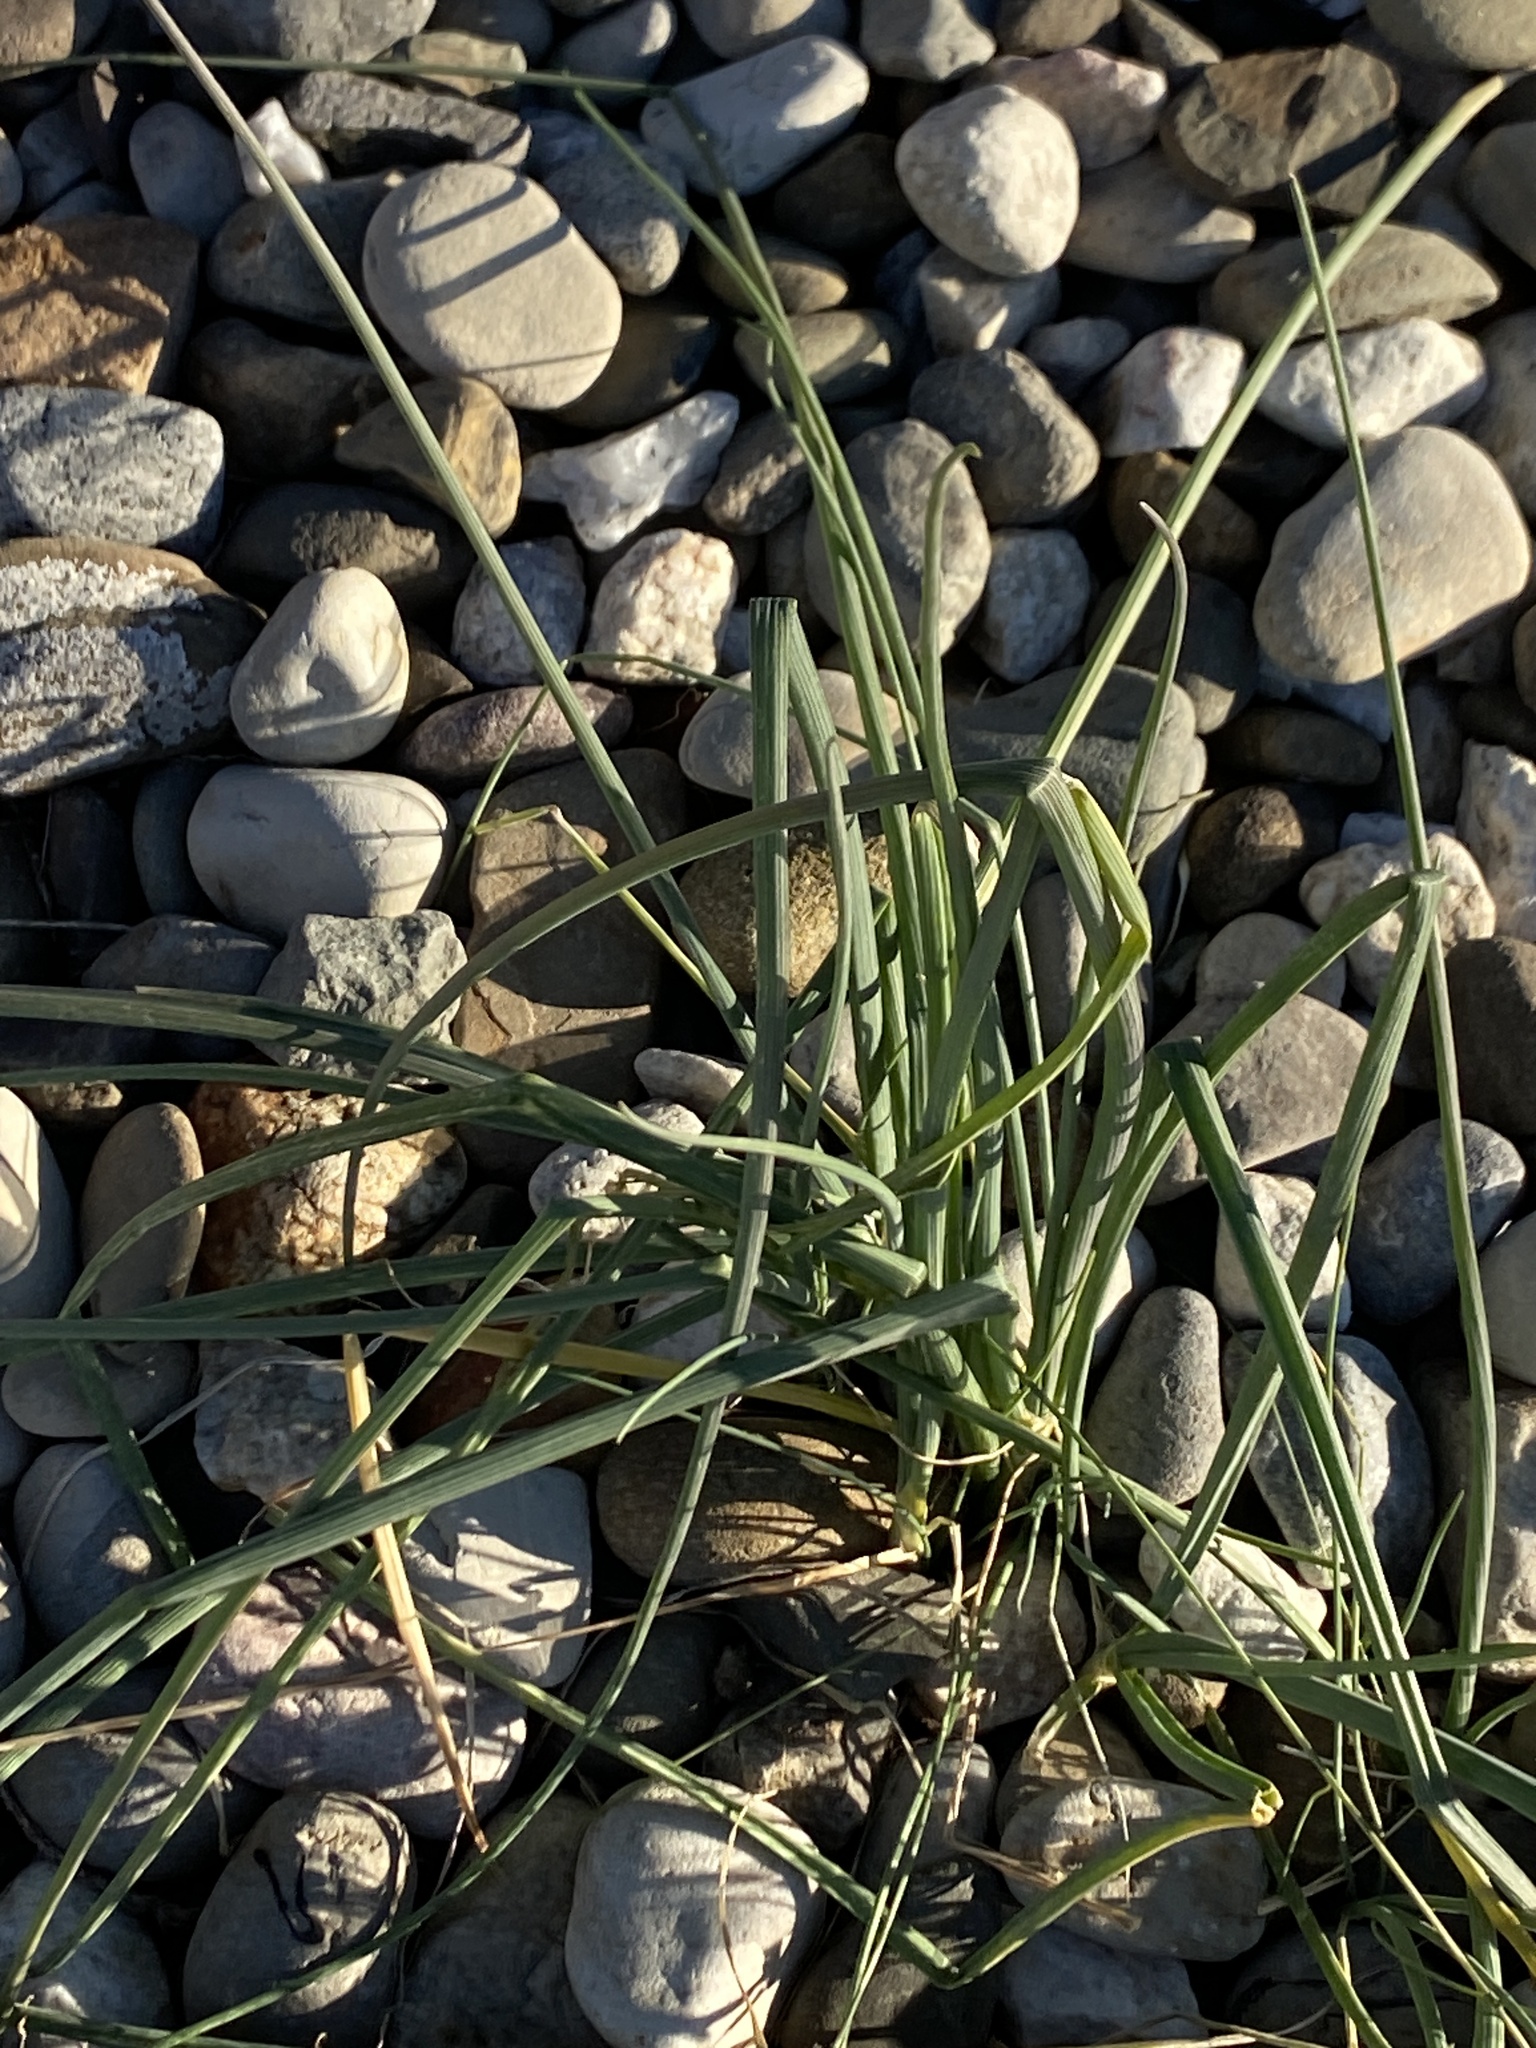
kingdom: Plantae
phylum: Tracheophyta
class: Liliopsida
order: Asparagales
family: Amaryllidaceae
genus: Allium
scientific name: Allium vineale
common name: Crow garlic
